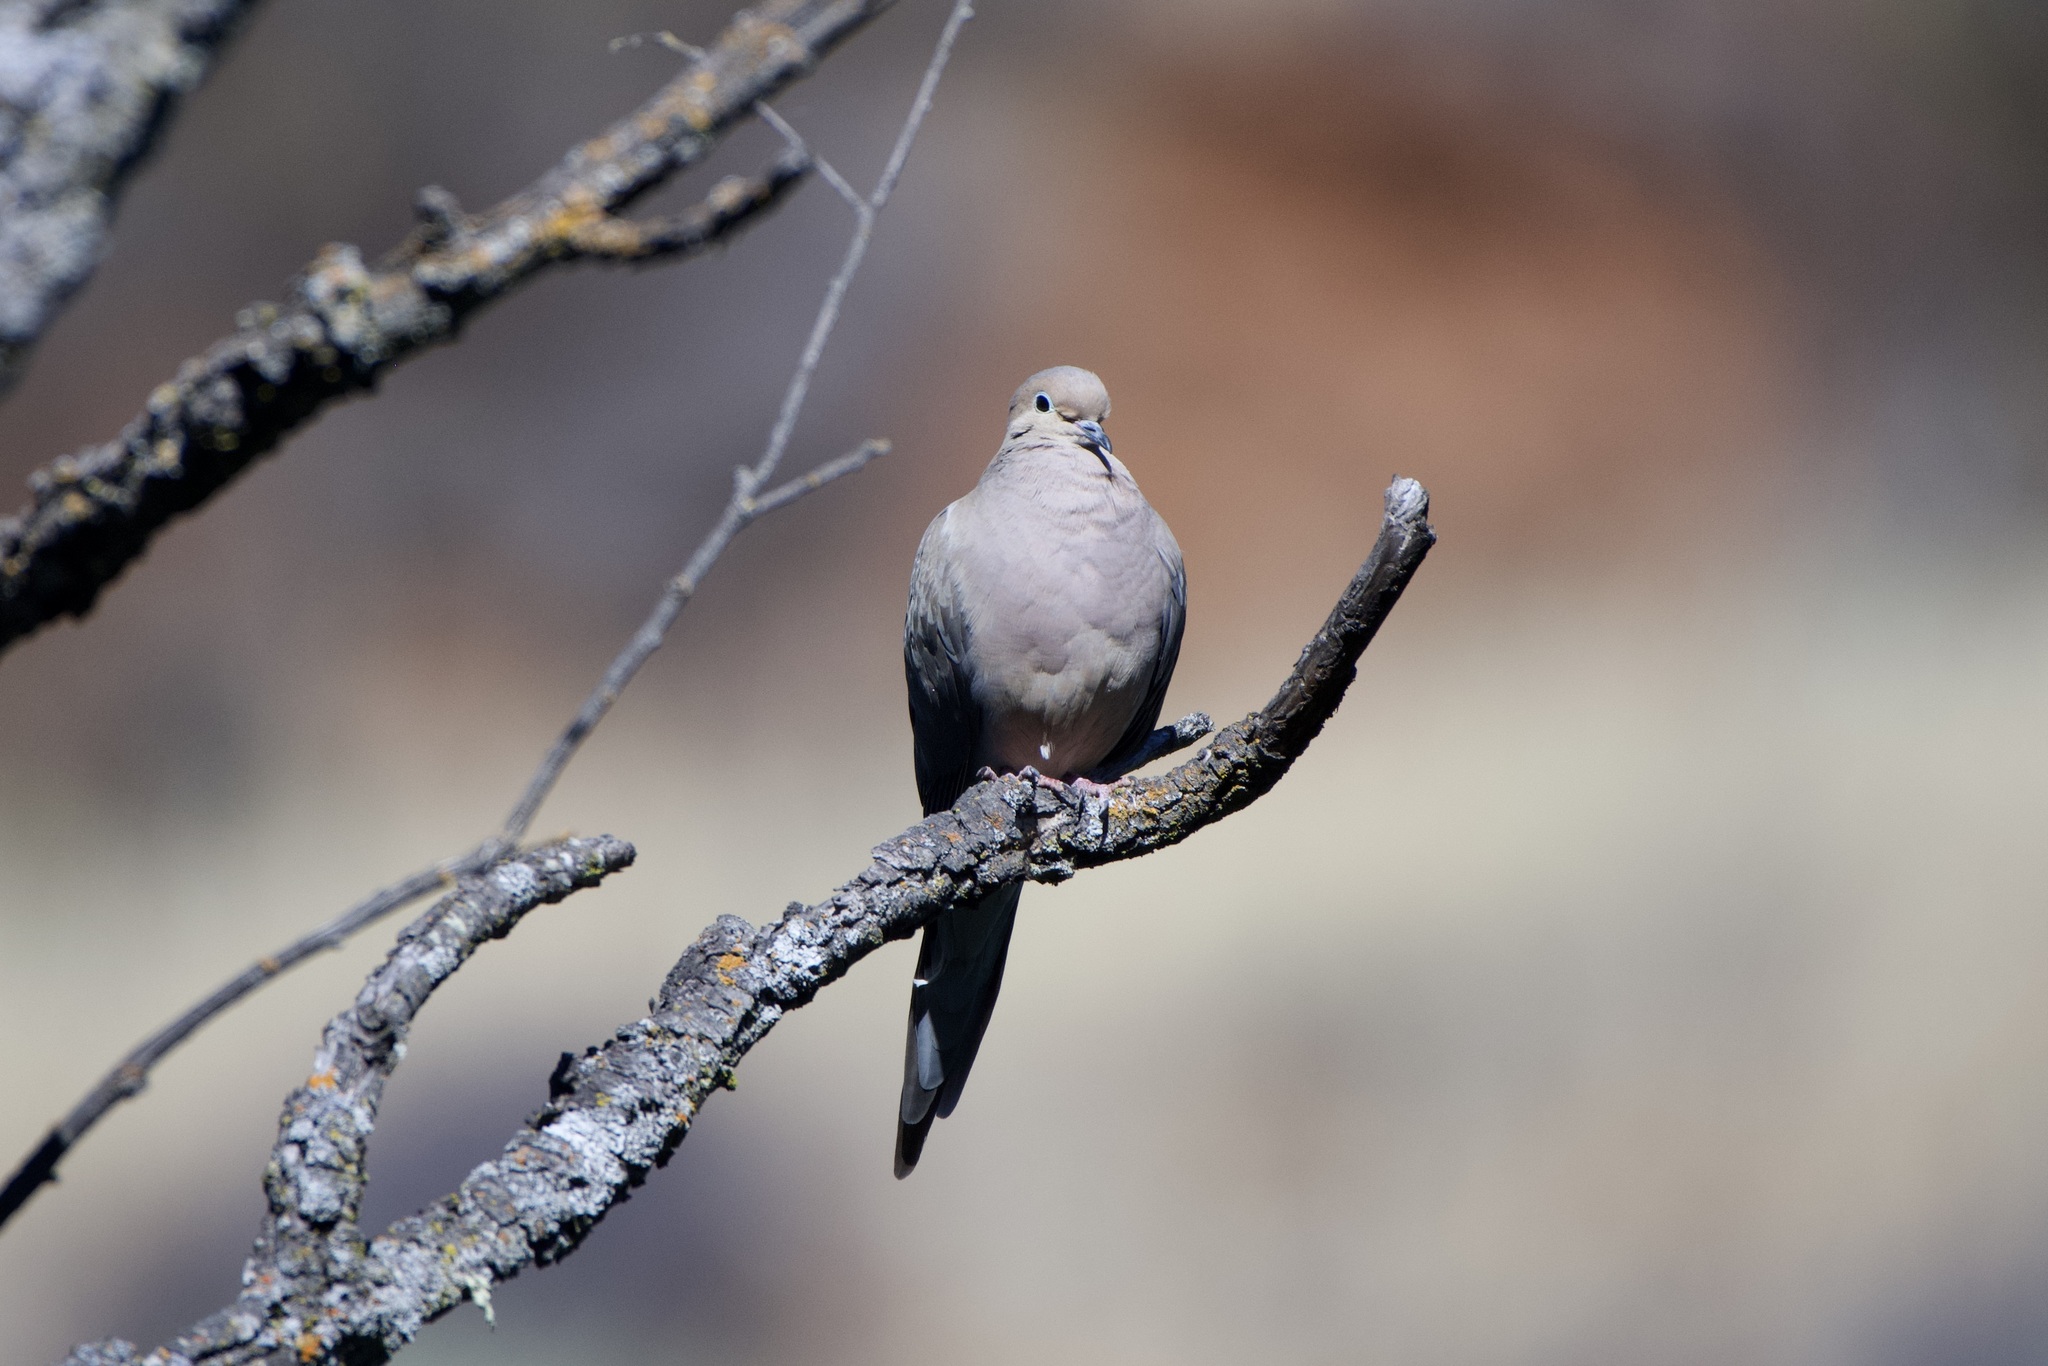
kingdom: Animalia
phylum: Chordata
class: Aves
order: Columbiformes
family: Columbidae
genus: Zenaida
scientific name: Zenaida macroura
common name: Mourning dove
